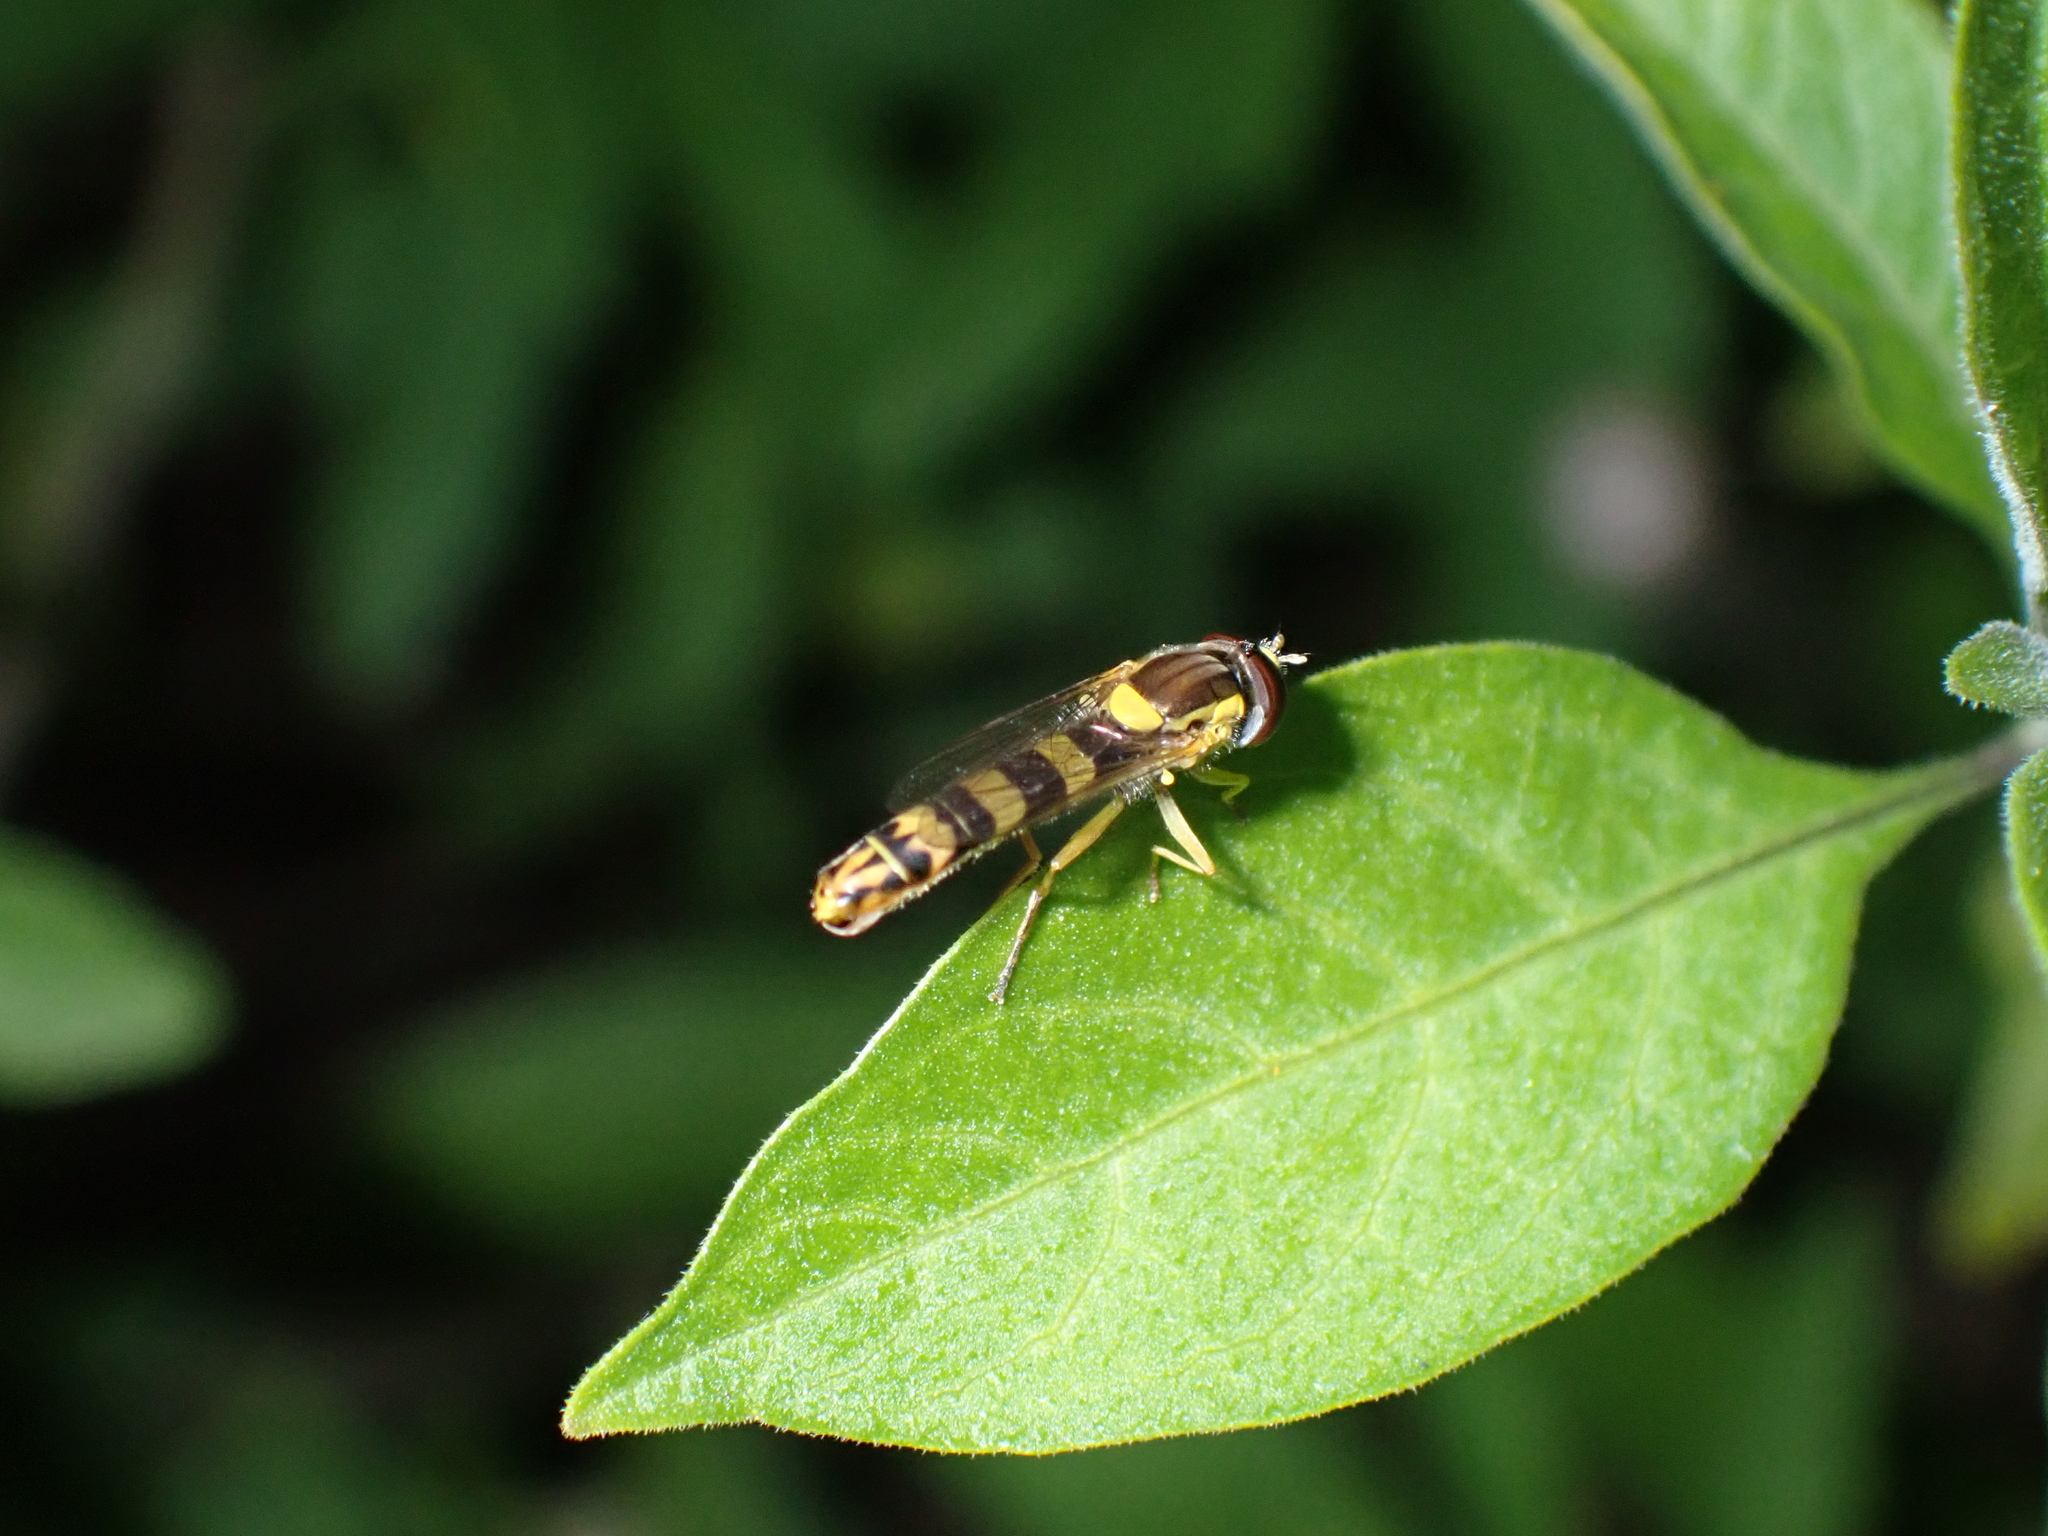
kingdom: Animalia
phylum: Arthropoda
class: Insecta
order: Diptera
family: Syrphidae
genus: Sphaerophoria
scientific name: Sphaerophoria scripta
